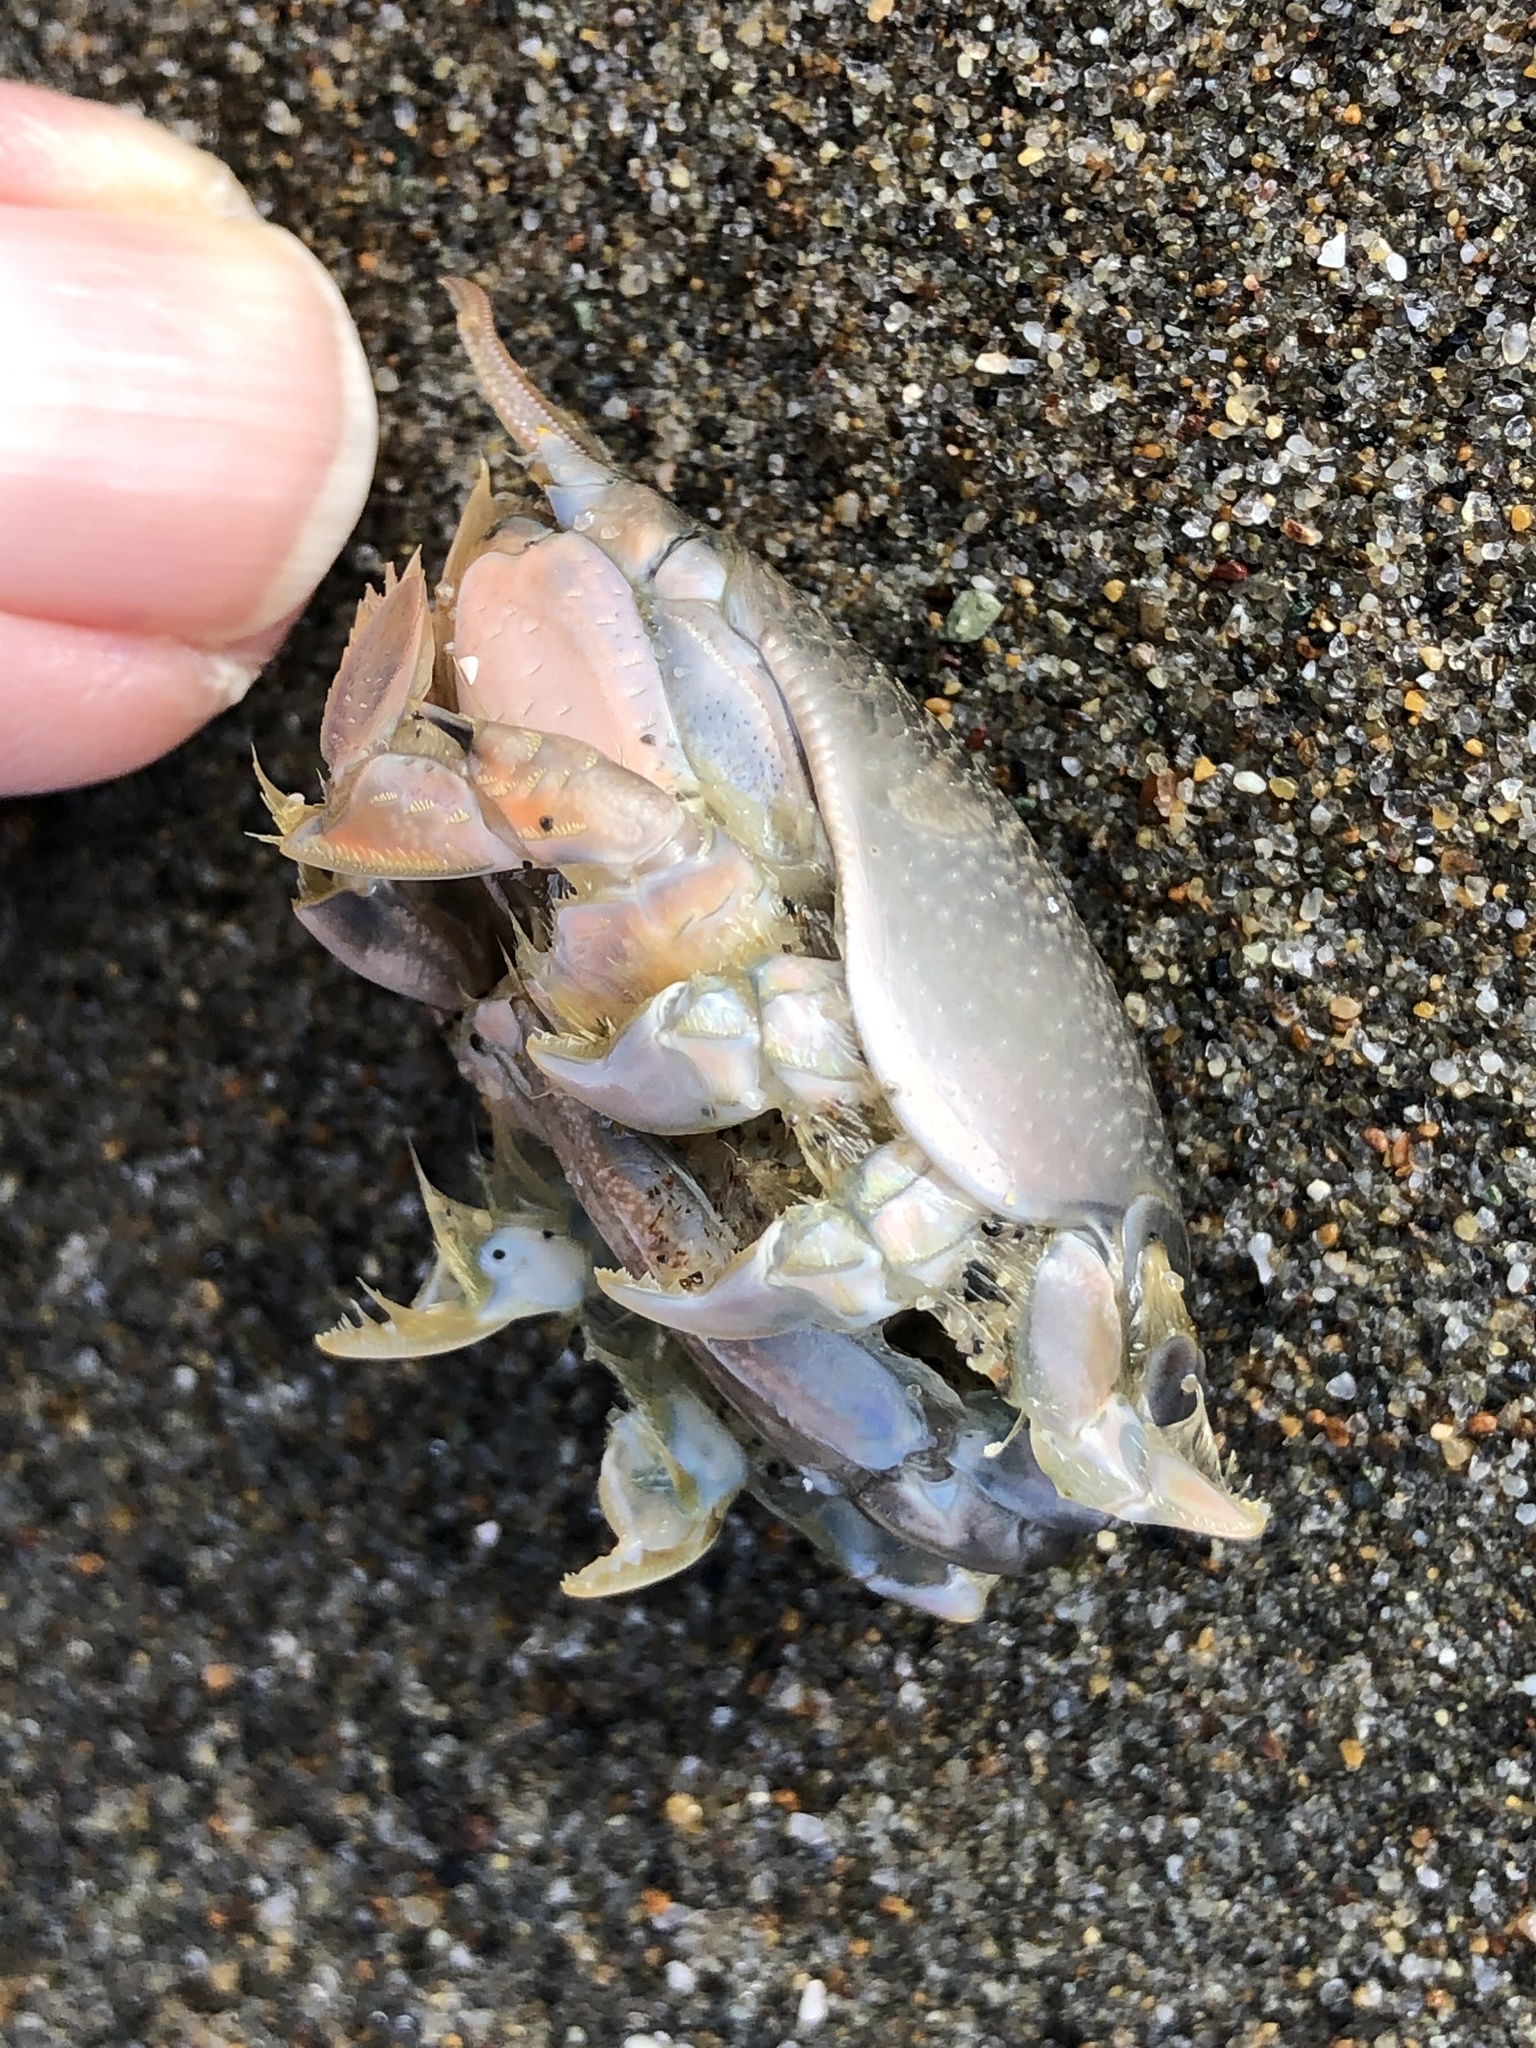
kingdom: Animalia
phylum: Arthropoda
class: Malacostraca
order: Decapoda
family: Hippidae
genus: Emerita
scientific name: Emerita analoga
